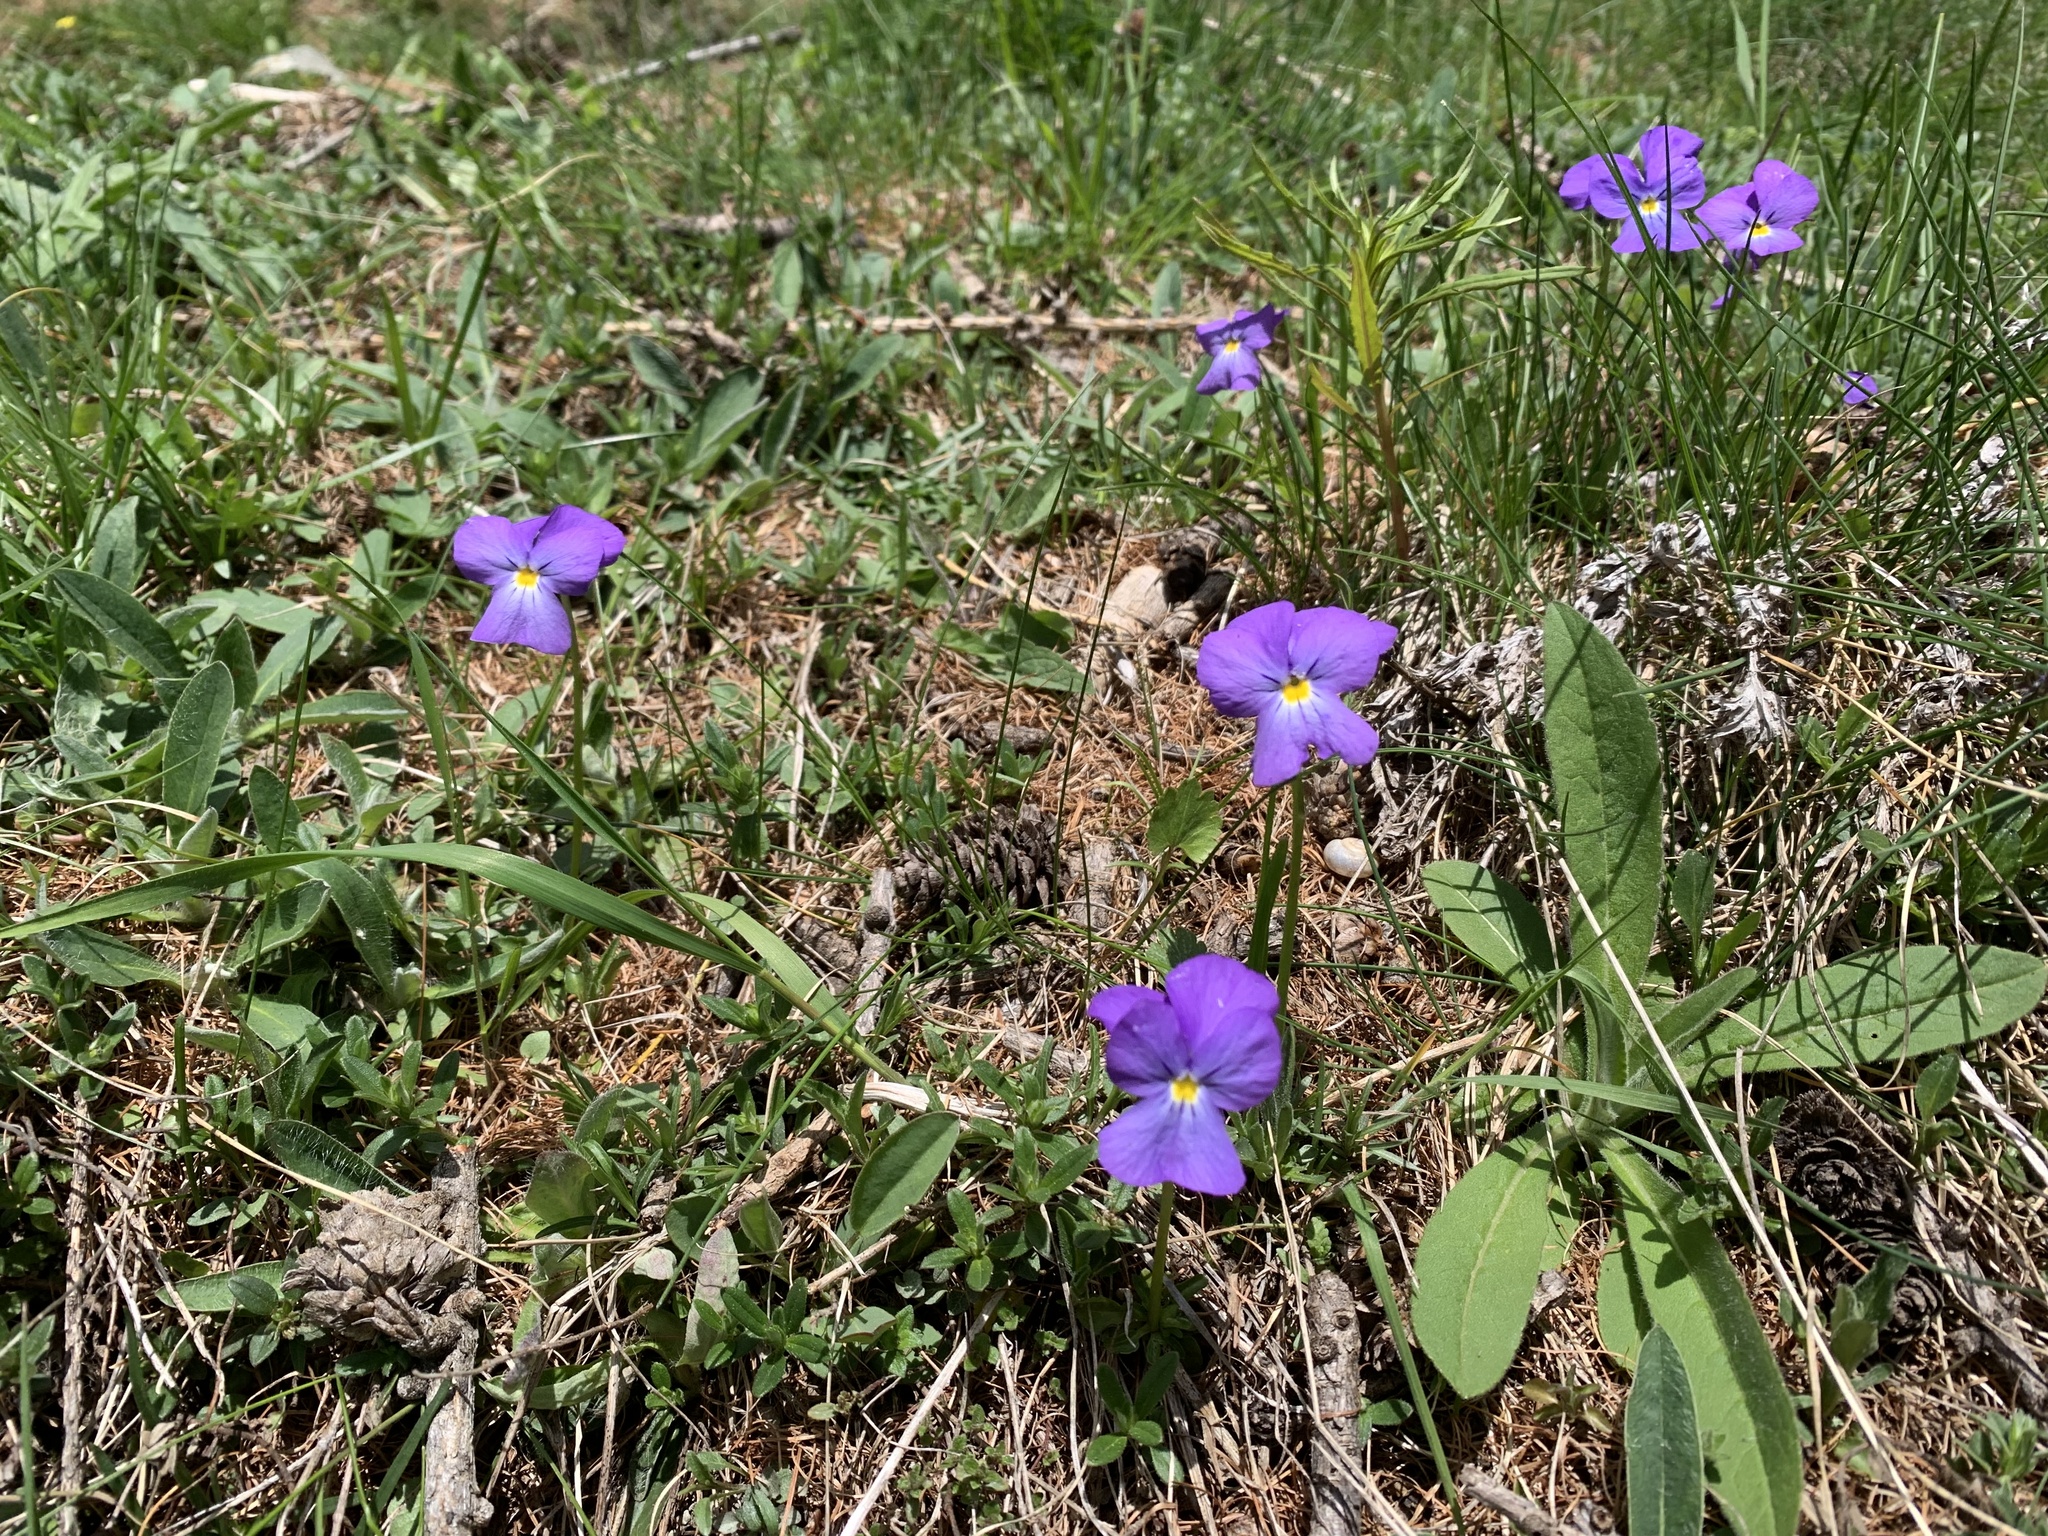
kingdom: Plantae
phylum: Tracheophyta
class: Magnoliopsida
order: Malpighiales
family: Violaceae
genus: Viola
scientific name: Viola calcarata
